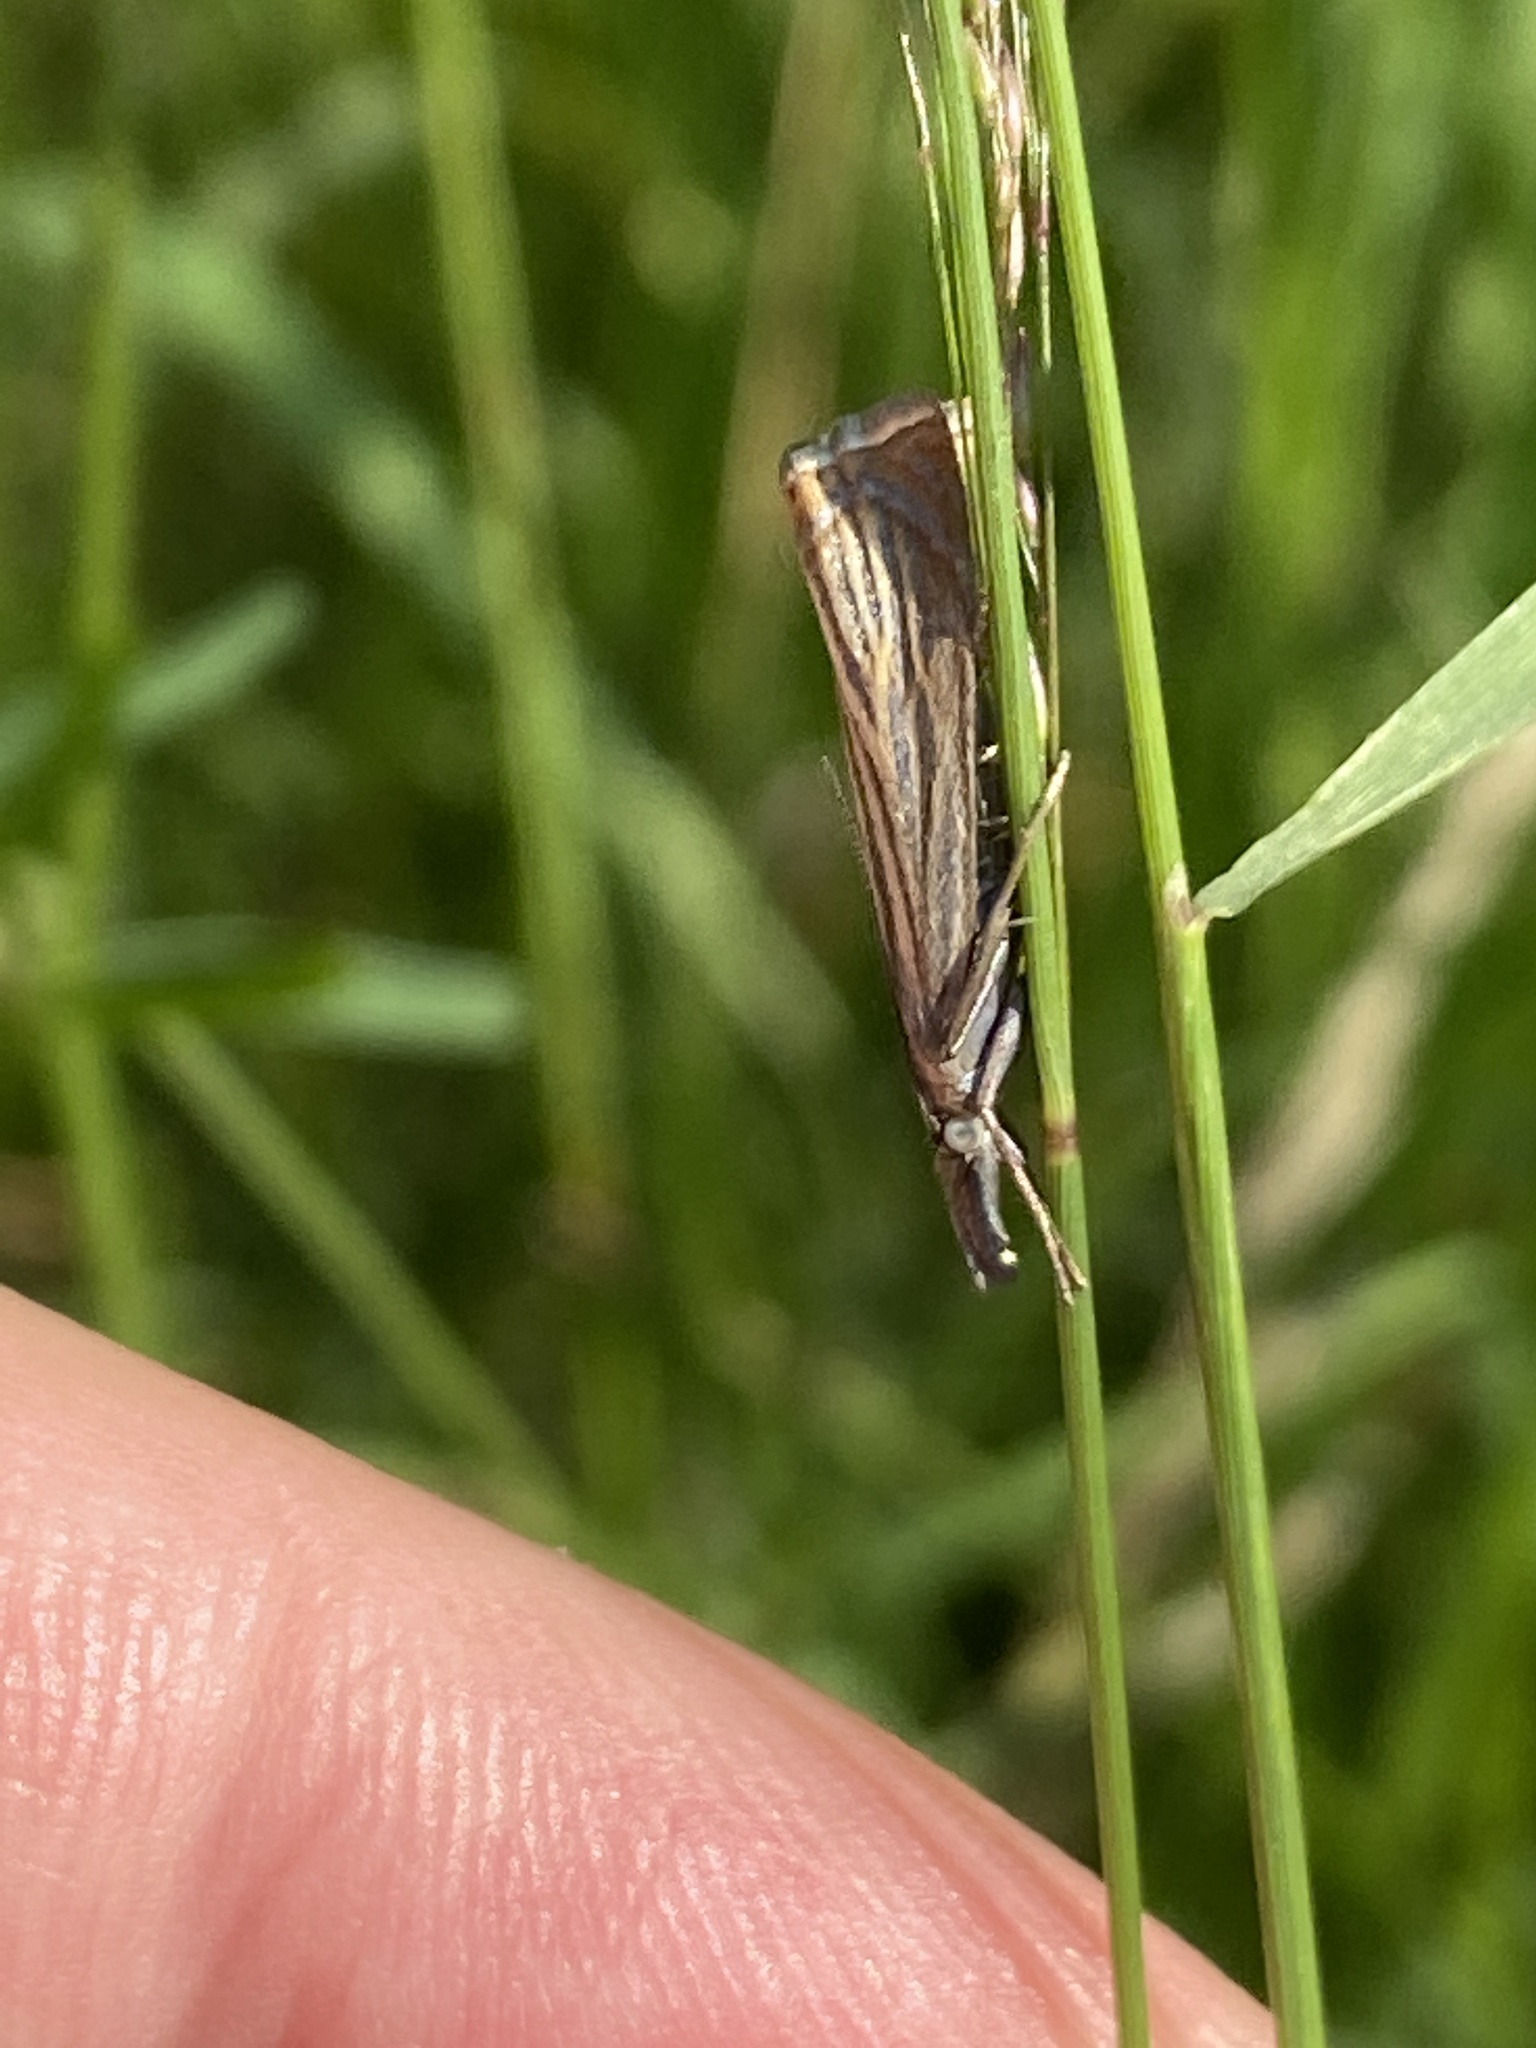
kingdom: Animalia
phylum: Arthropoda
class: Insecta
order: Lepidoptera
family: Crambidae
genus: Chrysoteuchia
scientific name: Chrysoteuchia culmella
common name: Garden grass-veneer
